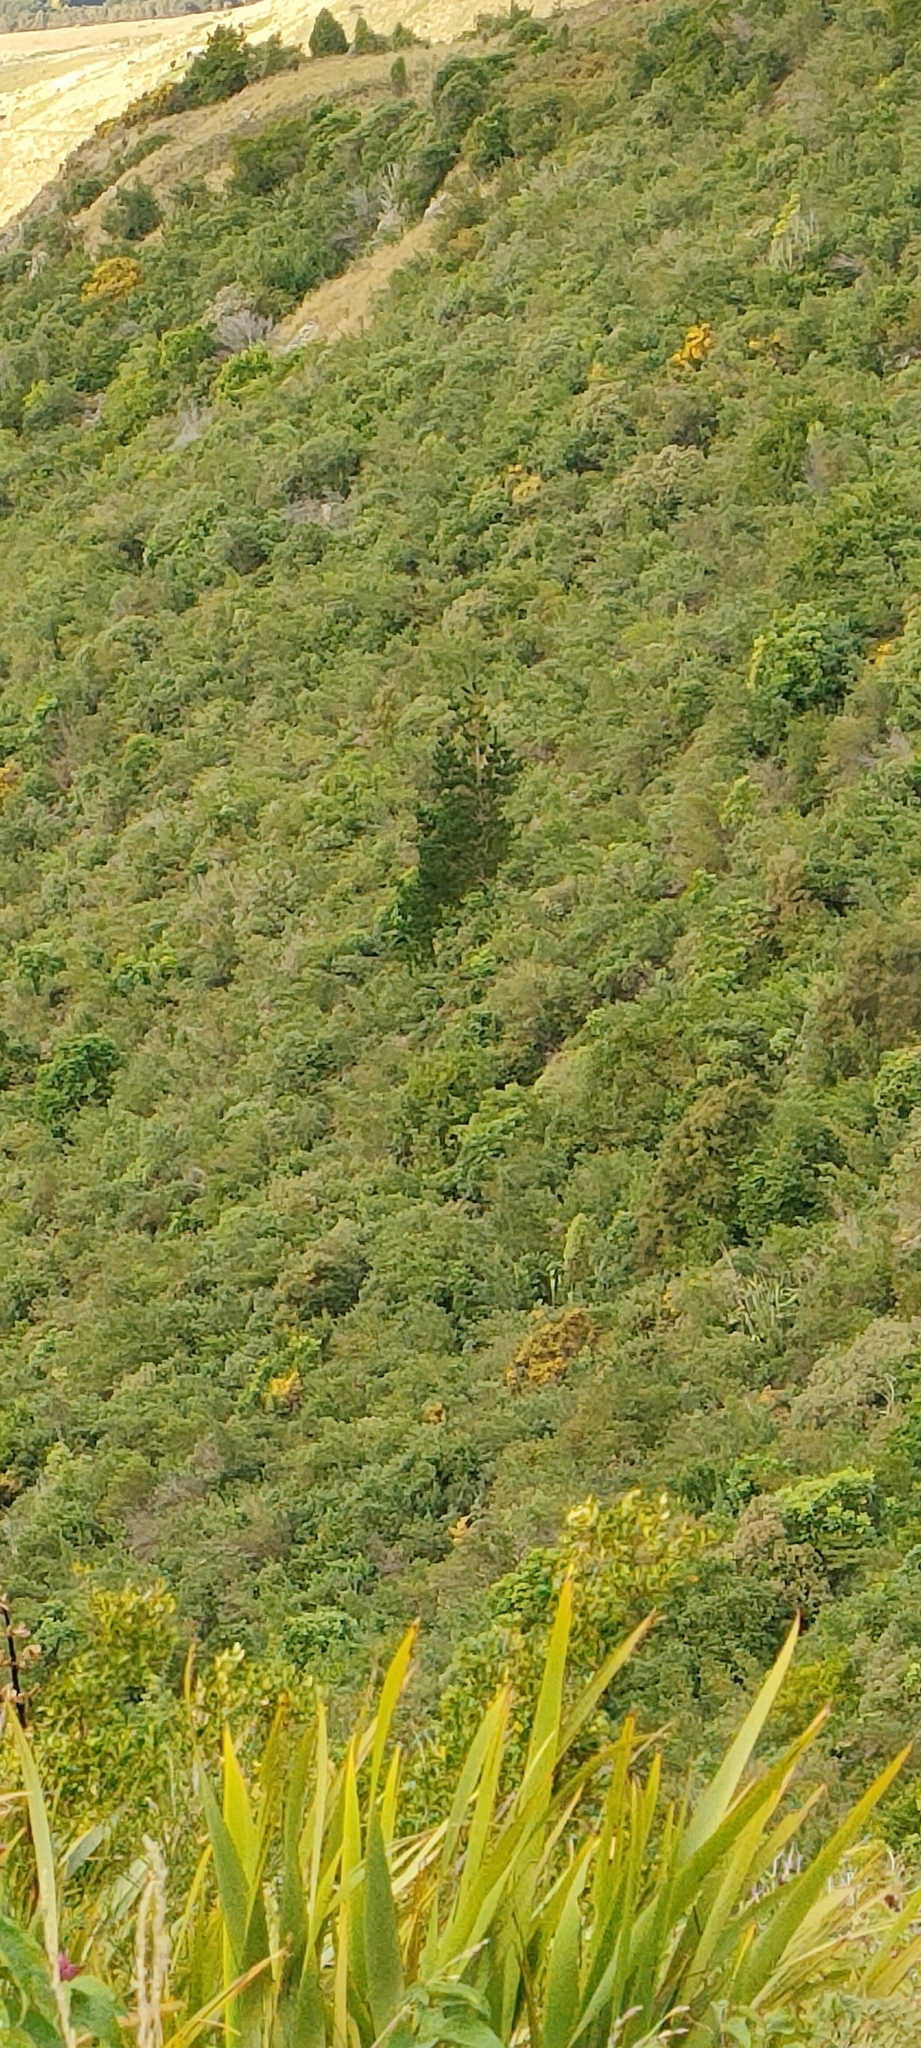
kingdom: Plantae
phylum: Tracheophyta
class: Pinopsida
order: Pinales
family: Pinaceae
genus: Pinus
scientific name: Pinus radiata
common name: Monterey pine
